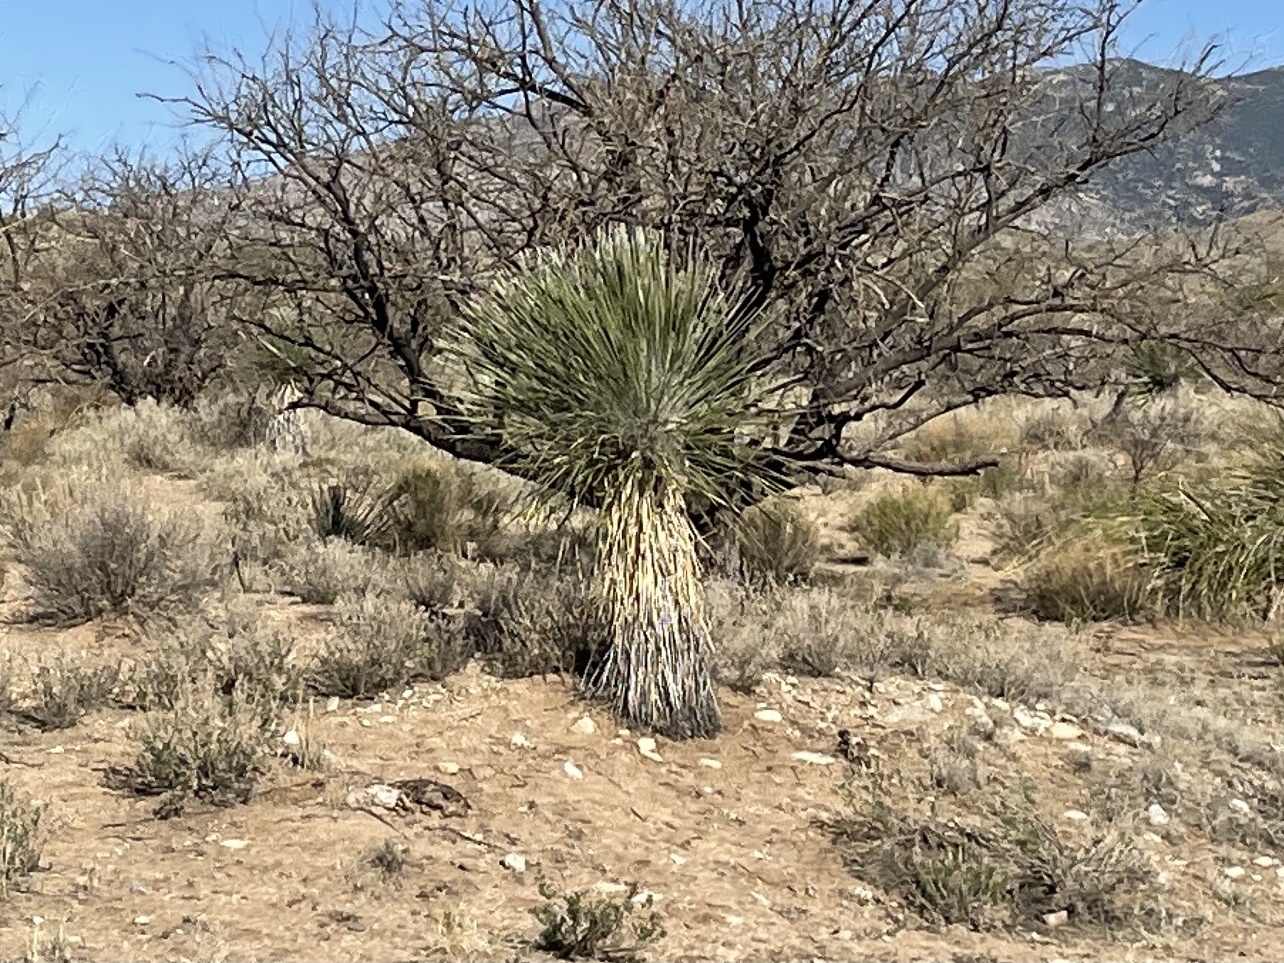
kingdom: Plantae
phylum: Tracheophyta
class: Liliopsida
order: Asparagales
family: Asparagaceae
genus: Yucca
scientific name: Yucca elata
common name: Palmella
